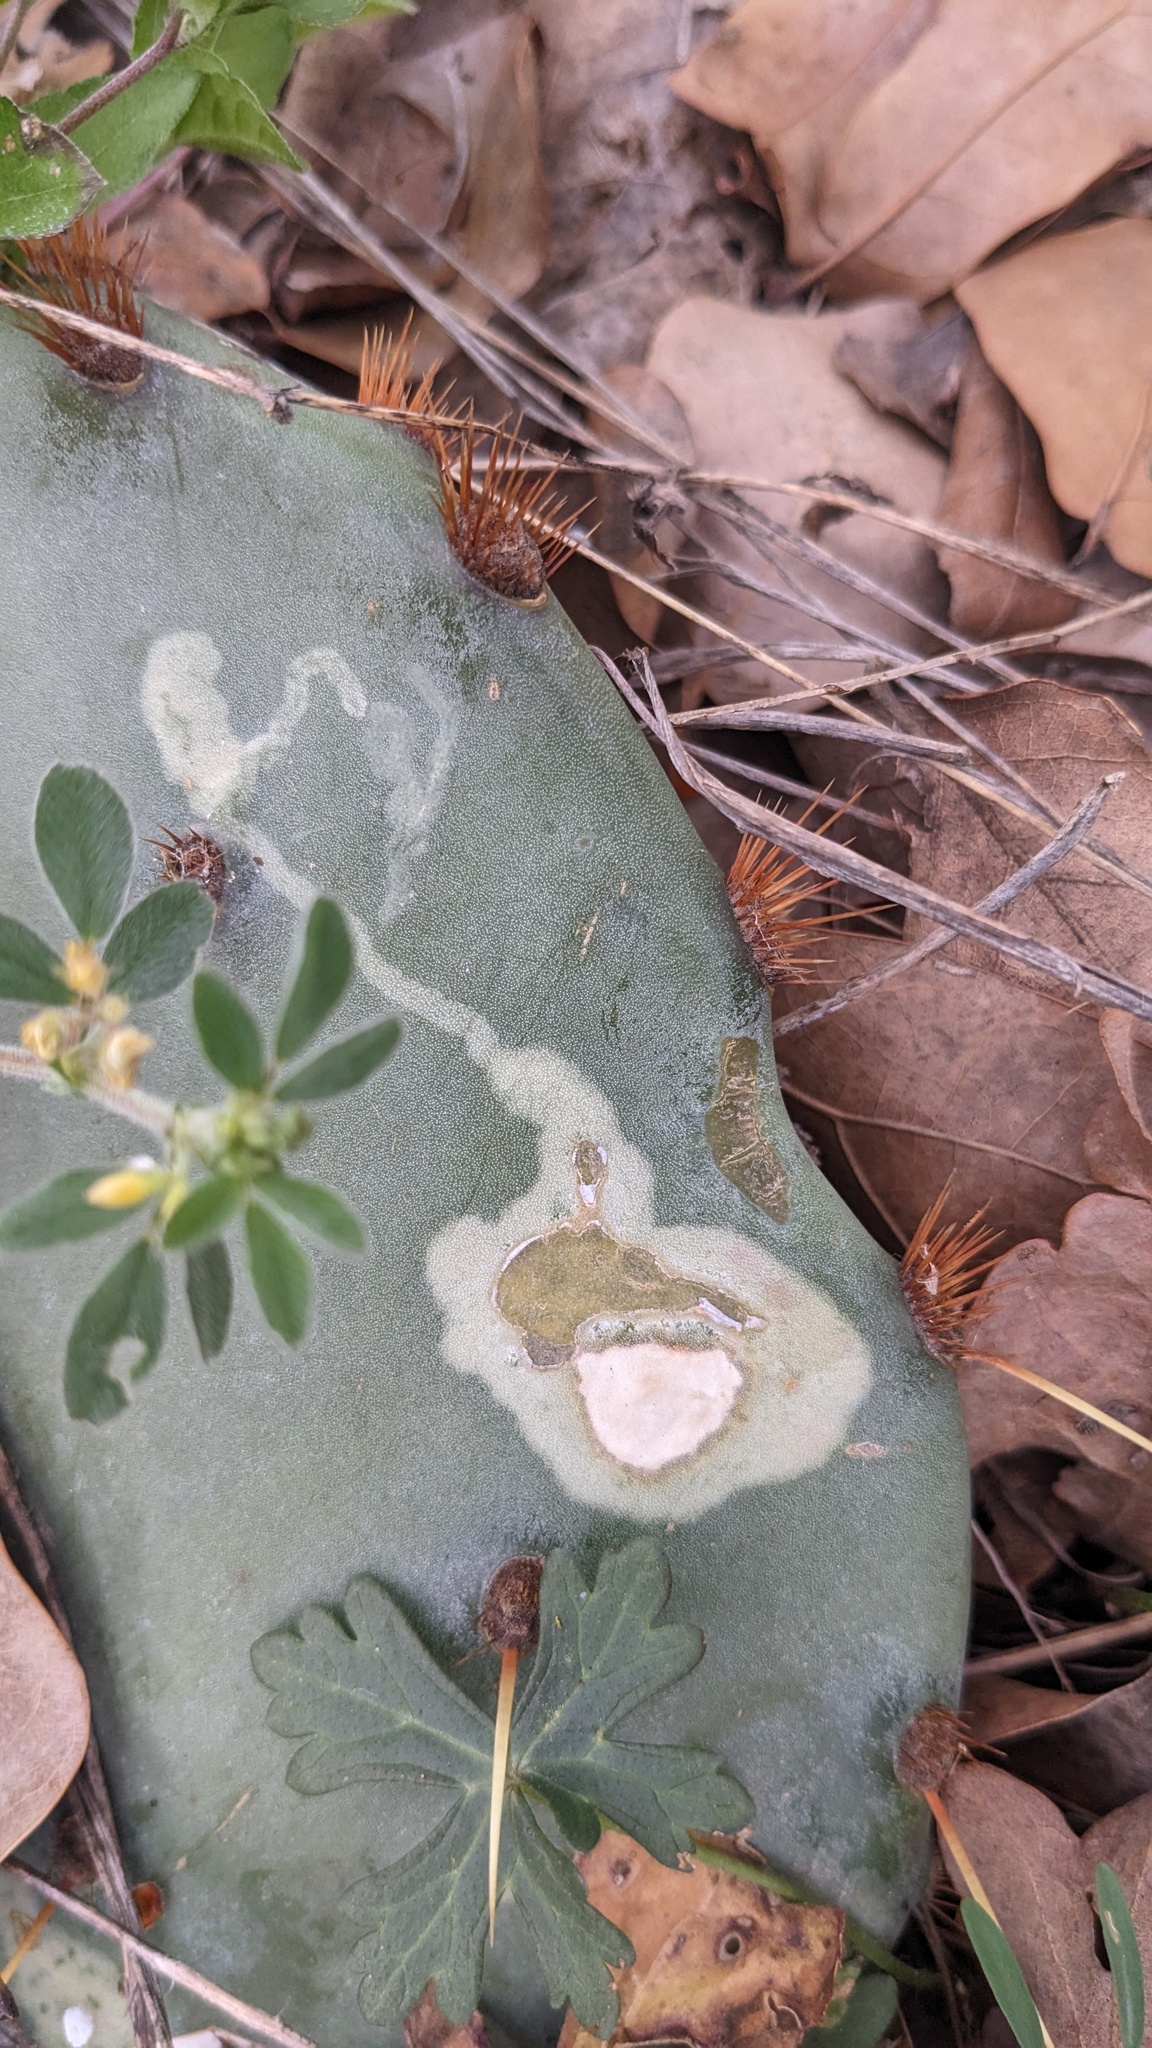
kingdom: Animalia
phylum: Arthropoda
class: Insecta
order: Lepidoptera
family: Gracillariidae
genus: Marmara
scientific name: Marmara opuntiella
